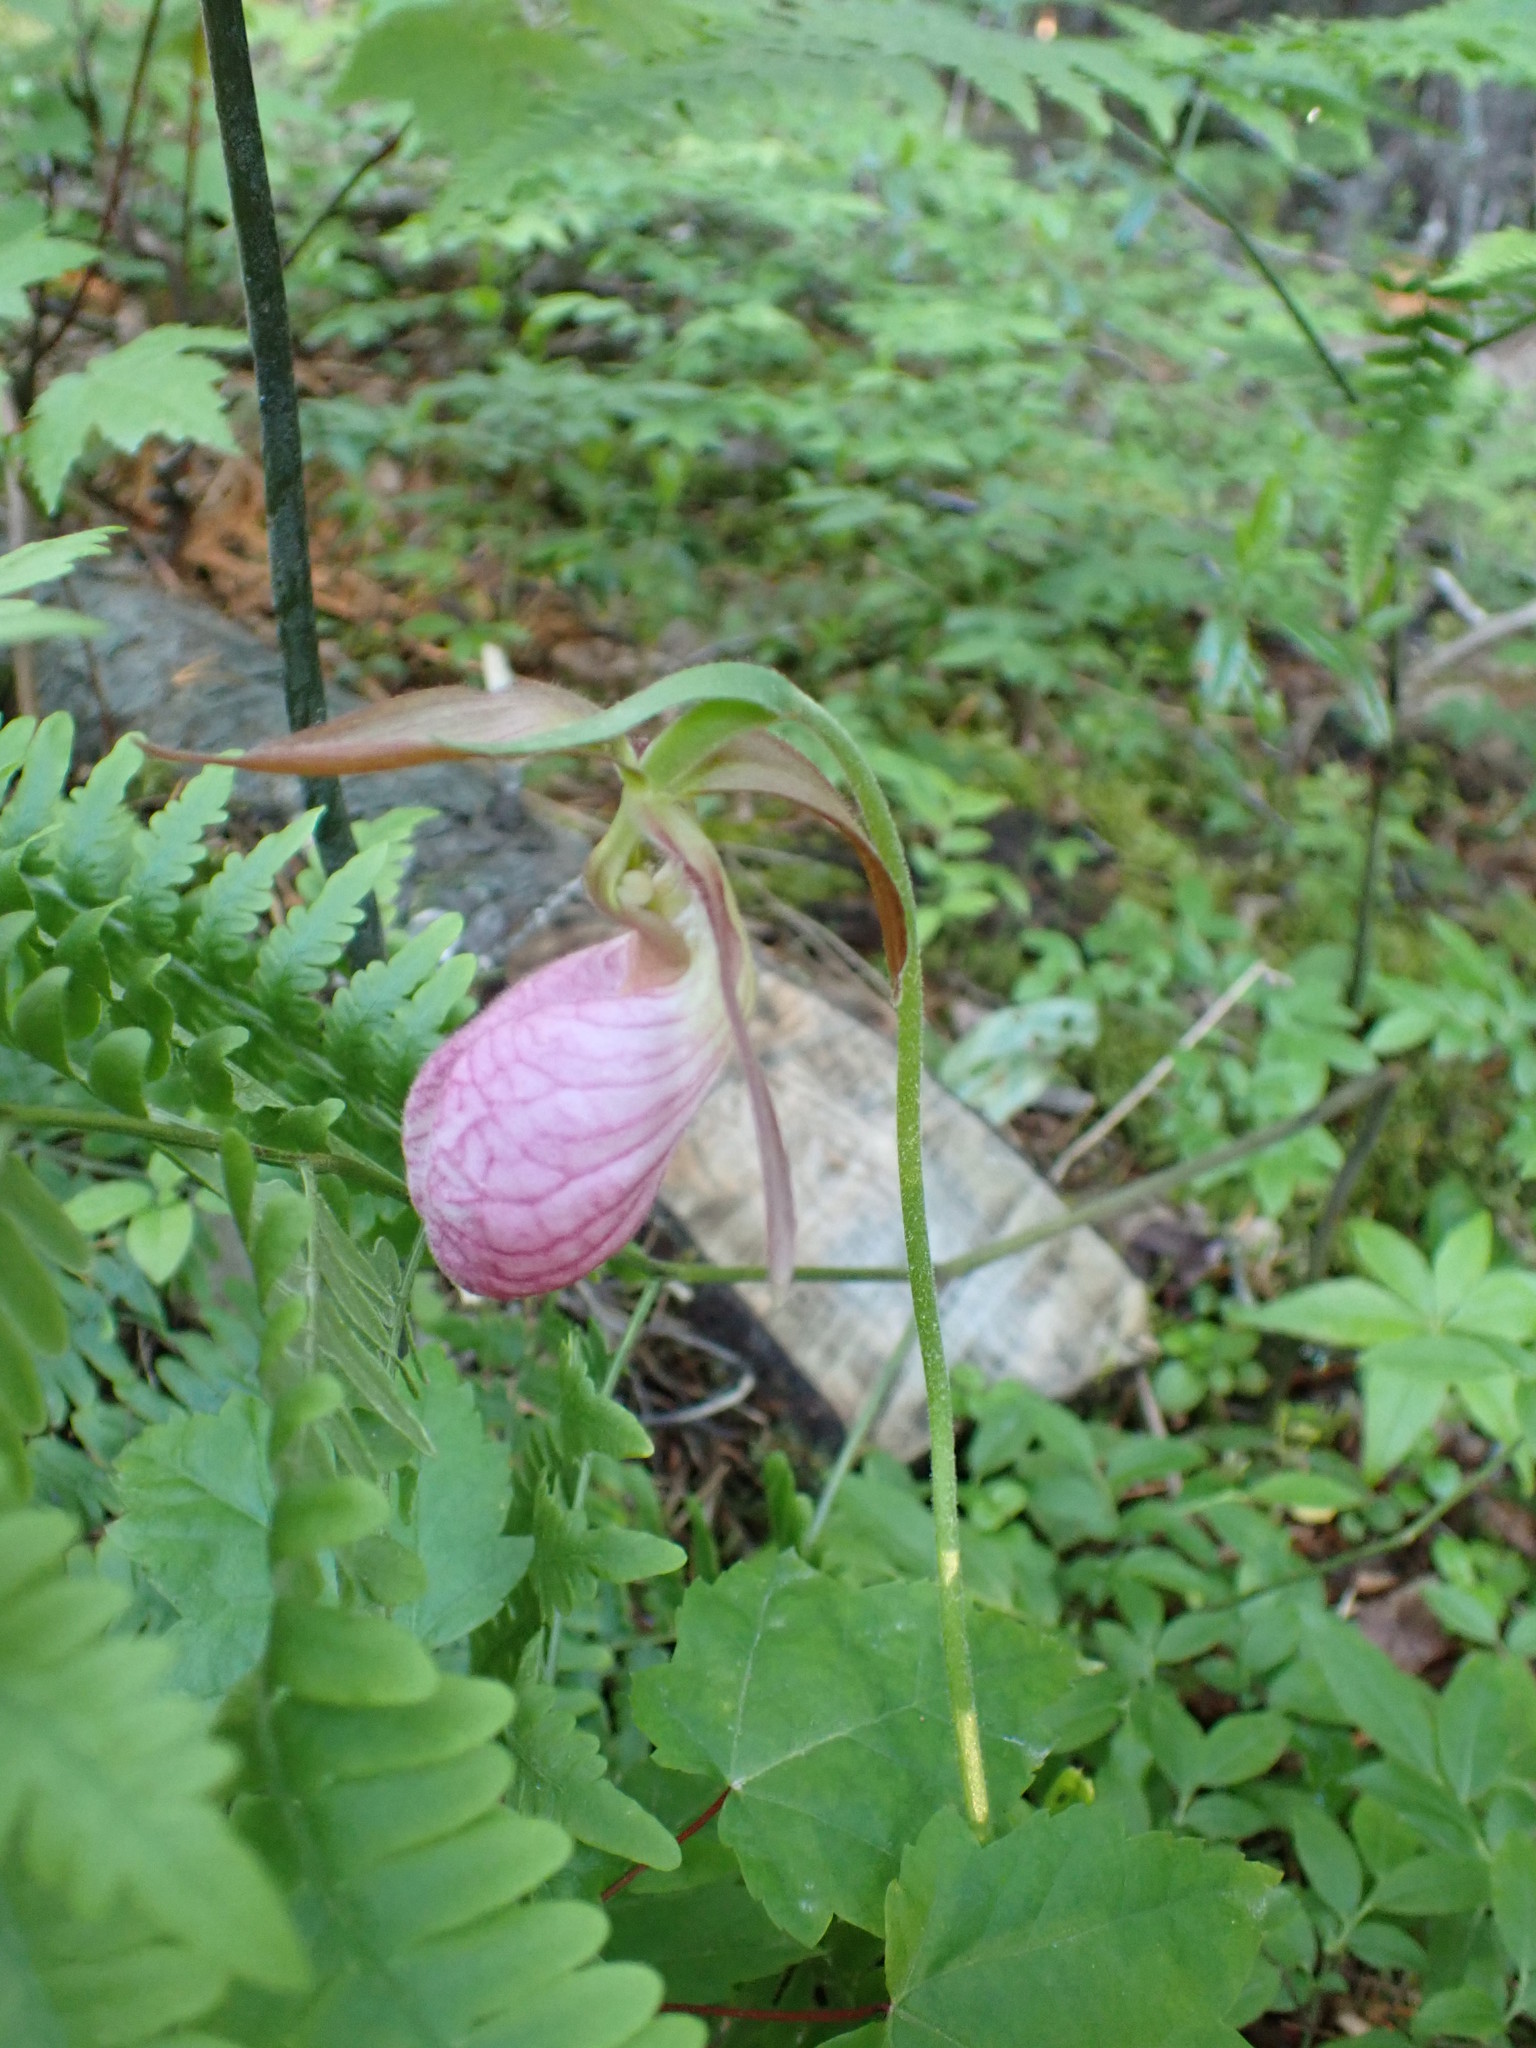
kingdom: Plantae
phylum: Tracheophyta
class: Liliopsida
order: Asparagales
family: Orchidaceae
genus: Cypripedium
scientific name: Cypripedium acaule
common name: Pink lady's-slipper
